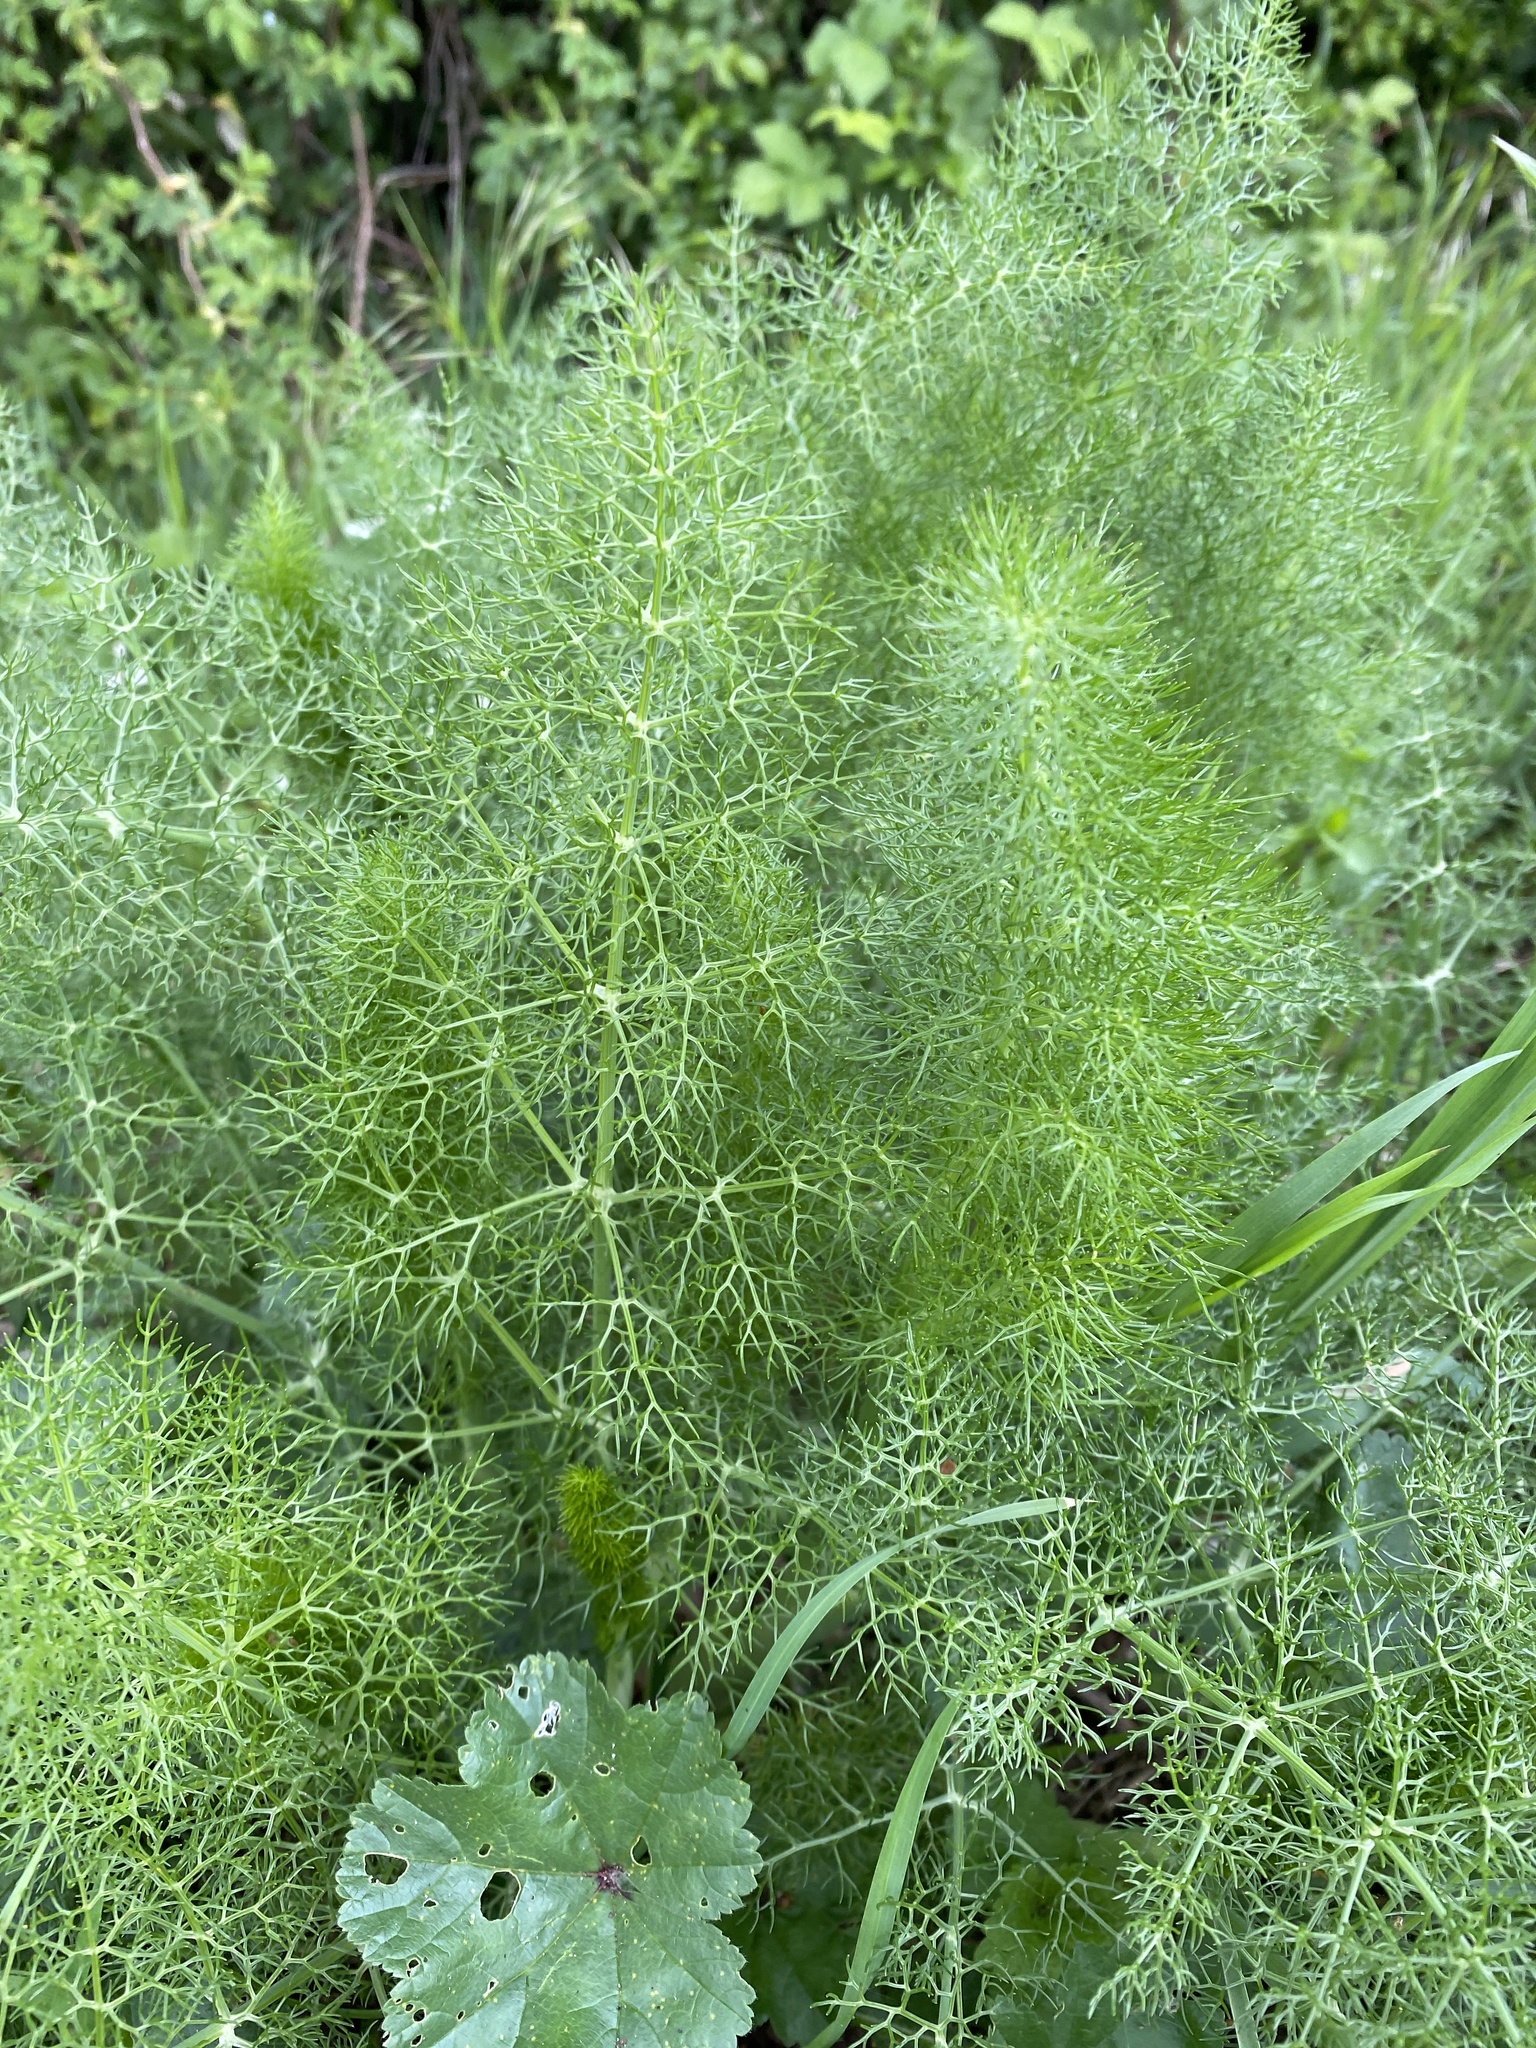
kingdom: Plantae
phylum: Tracheophyta
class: Magnoliopsida
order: Apiales
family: Apiaceae
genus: Foeniculum
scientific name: Foeniculum vulgare
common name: Fennel
